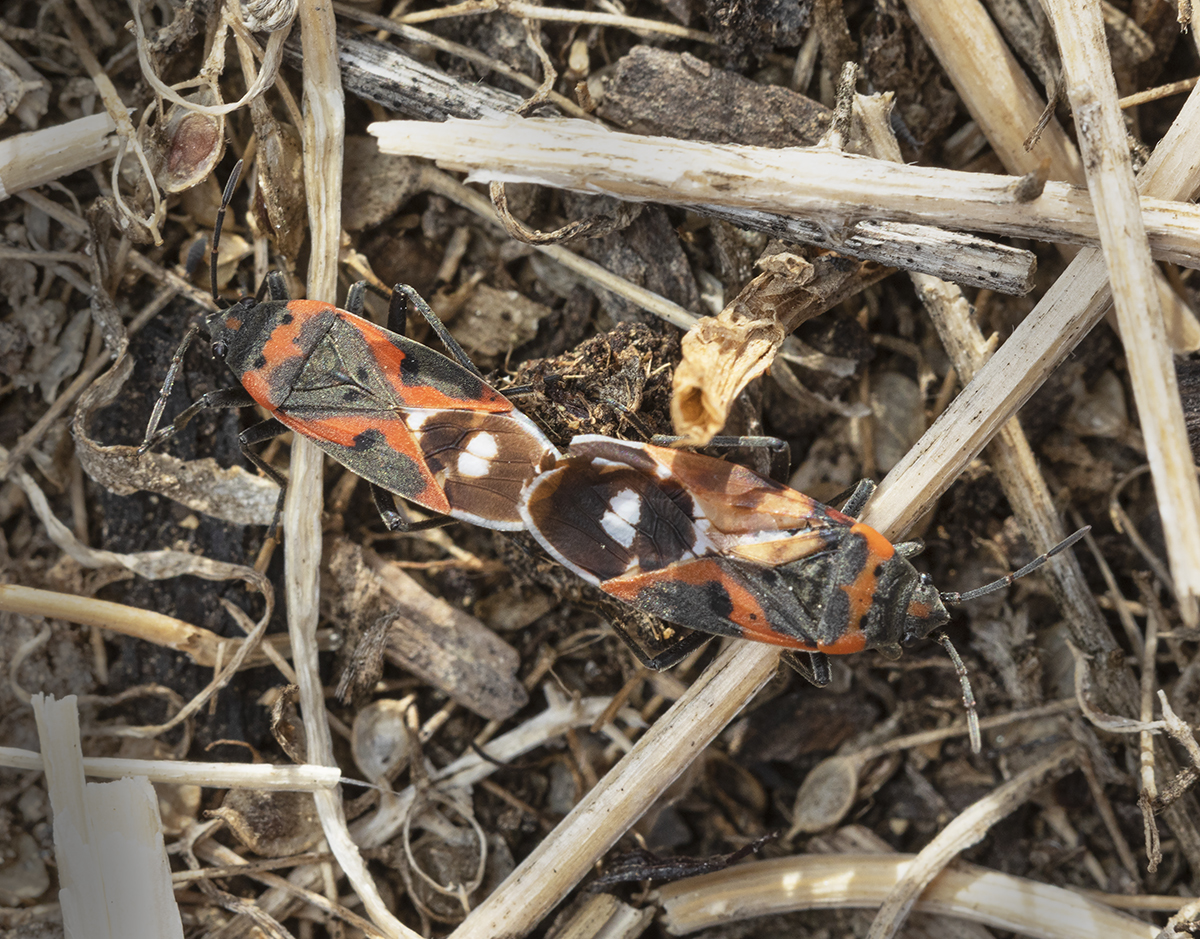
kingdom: Animalia
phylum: Arthropoda
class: Insecta
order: Hemiptera
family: Lygaeidae
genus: Lygaeus
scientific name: Lygaeus kalmii
